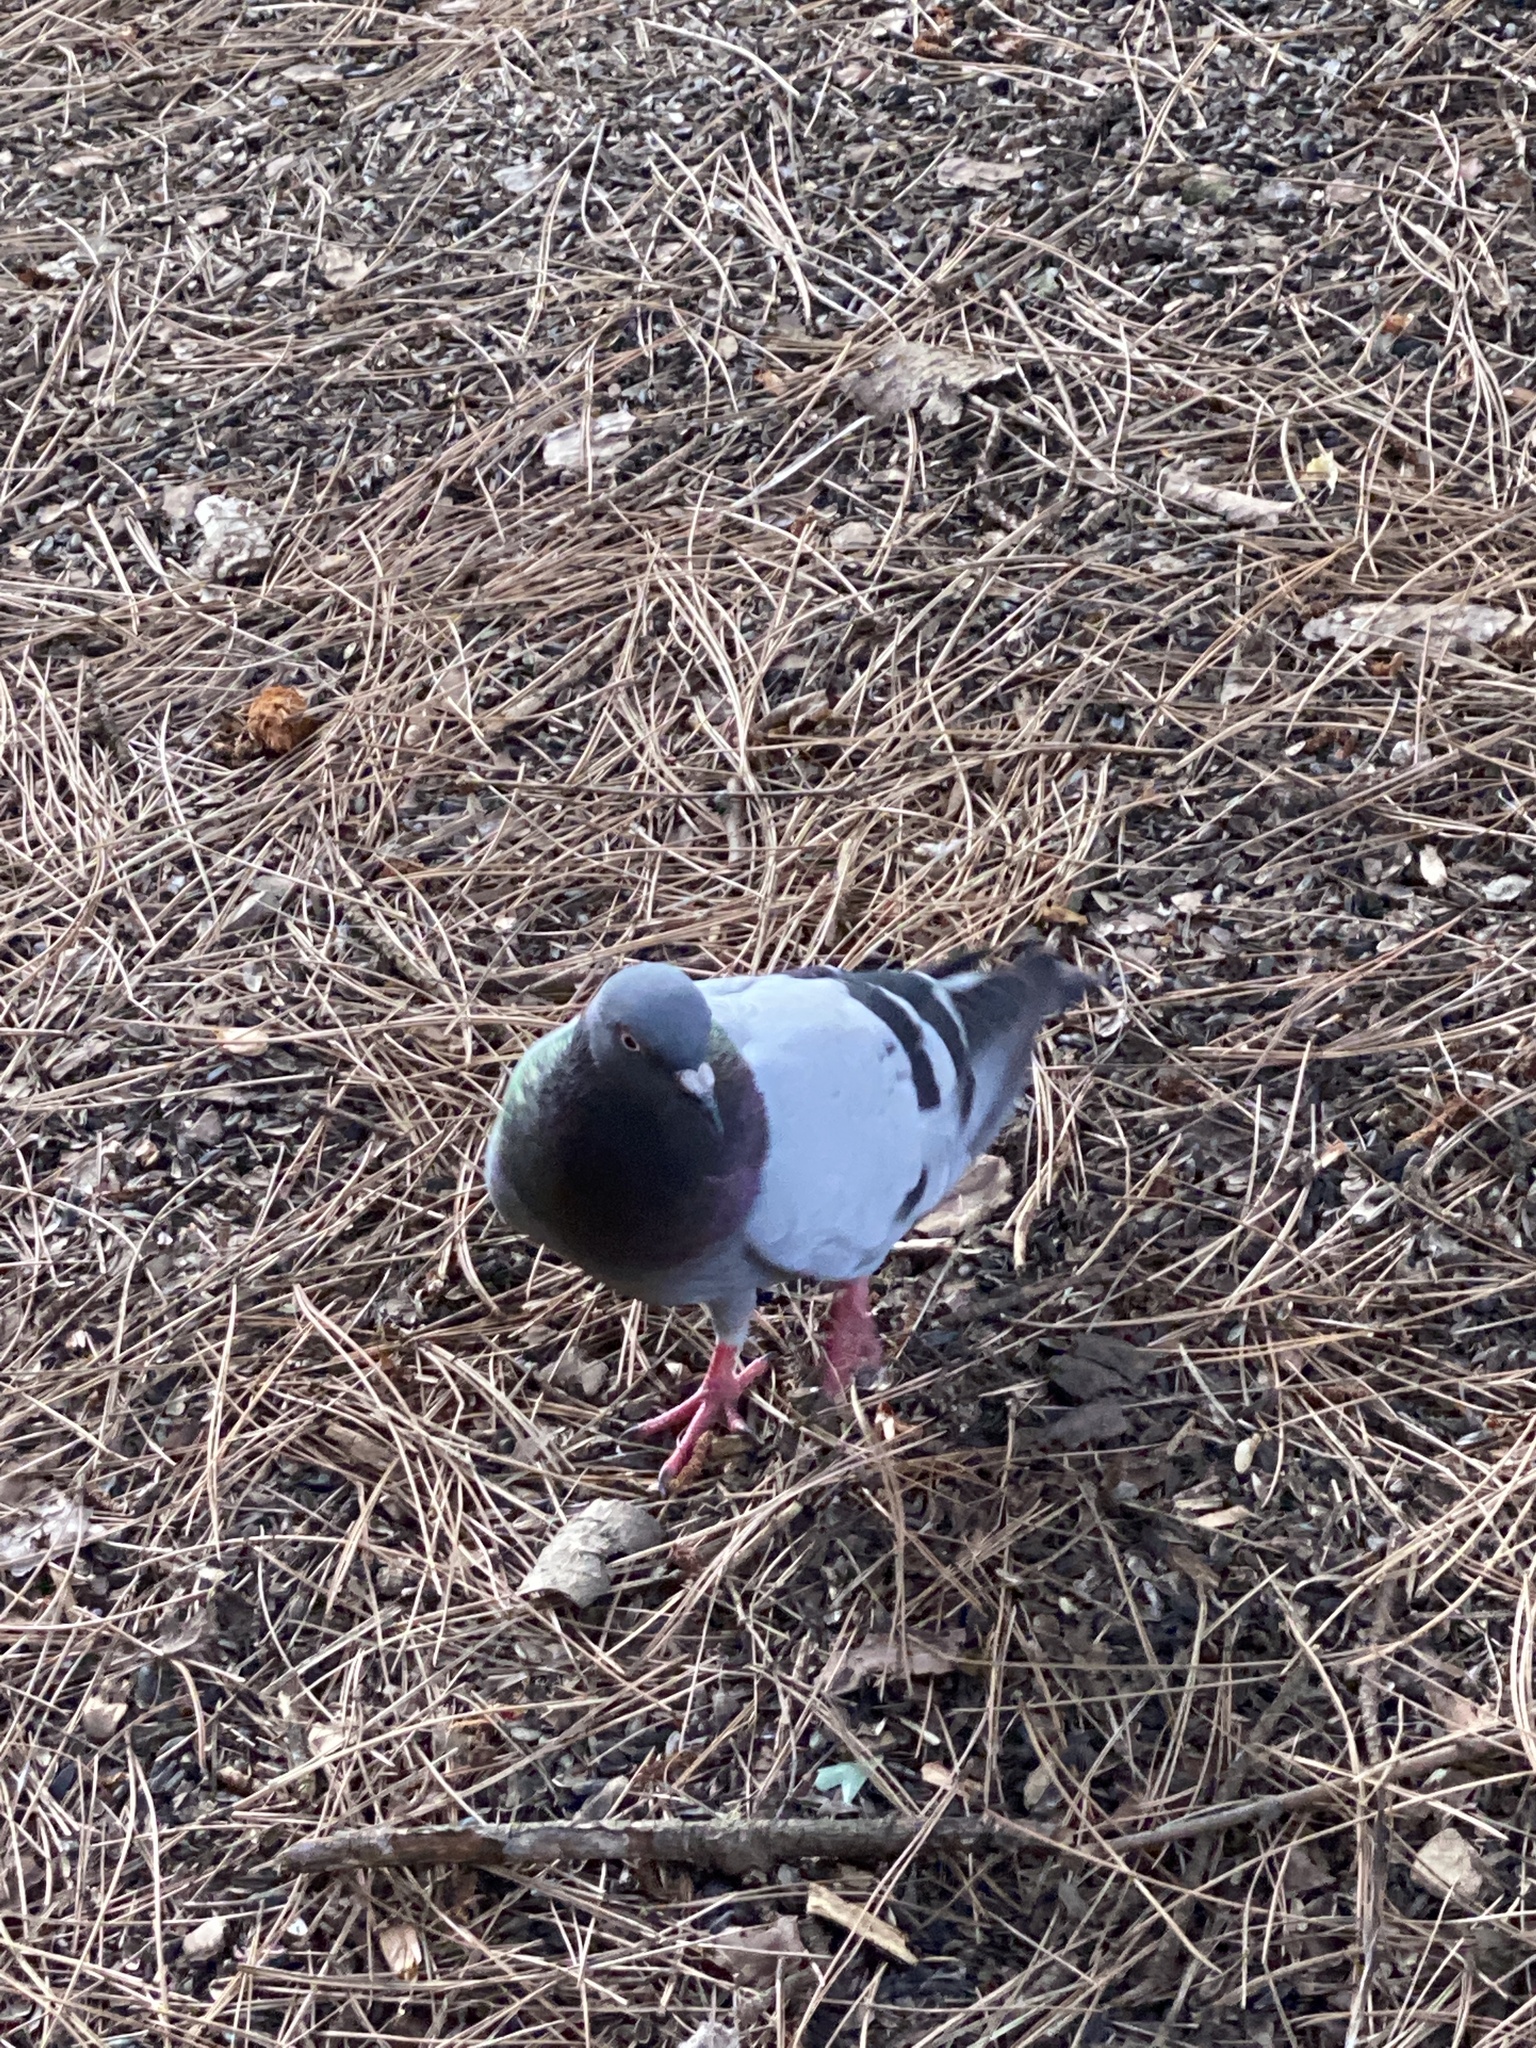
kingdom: Animalia
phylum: Chordata
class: Aves
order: Columbiformes
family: Columbidae
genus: Columba
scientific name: Columba livia
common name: Rock pigeon
